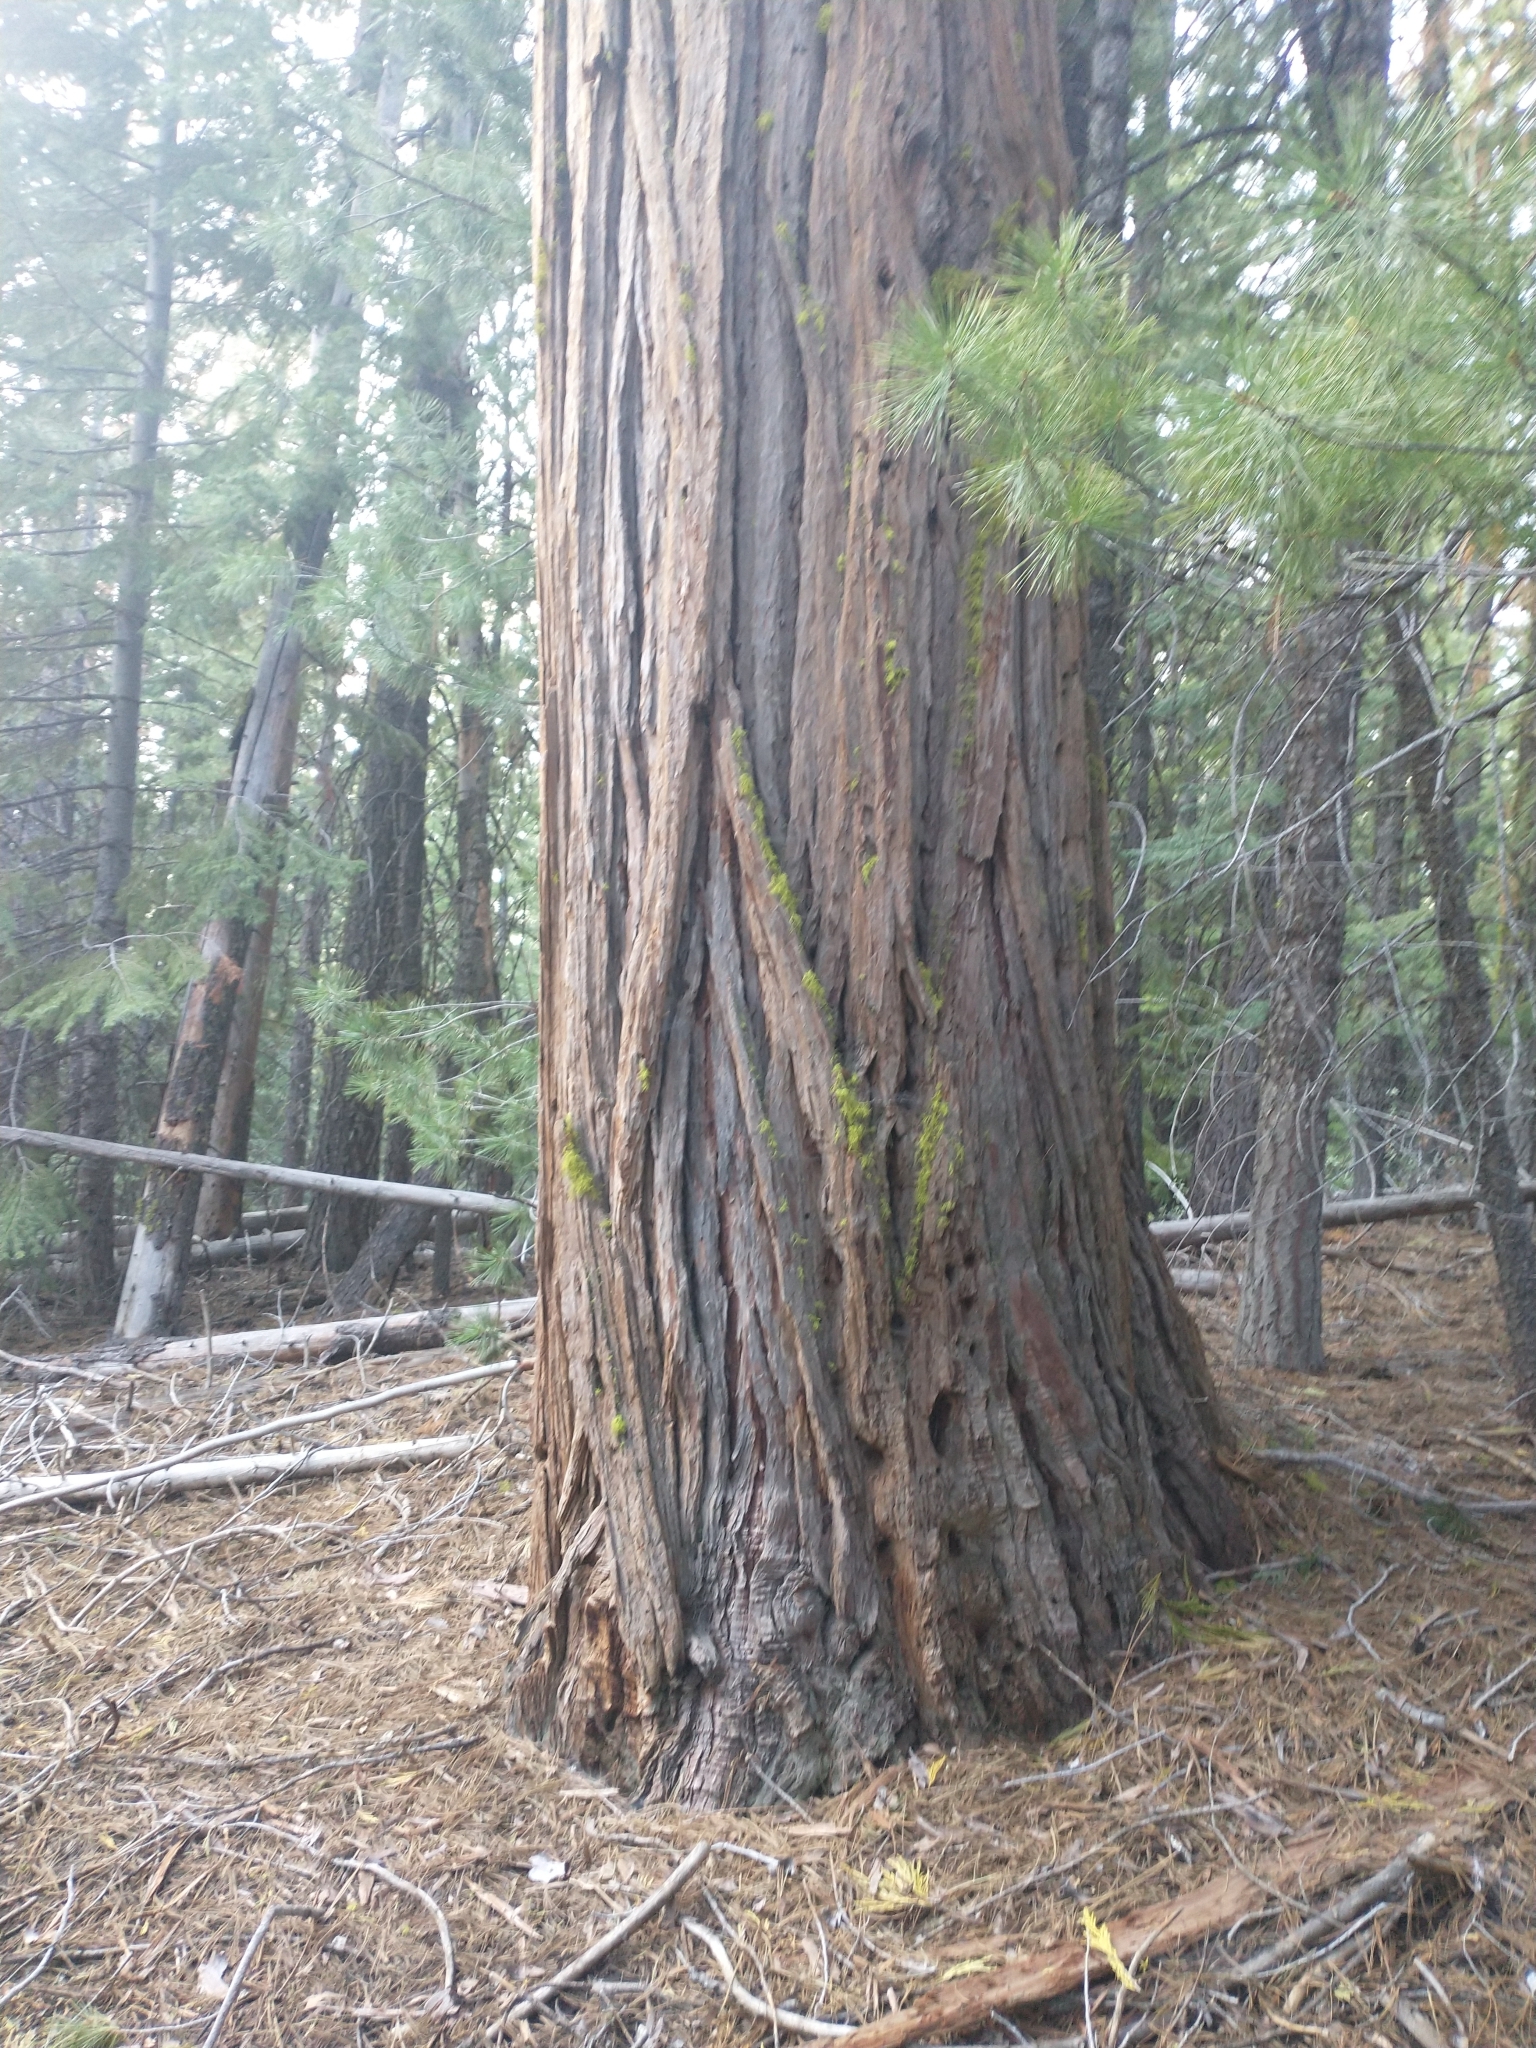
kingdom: Plantae
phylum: Tracheophyta
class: Pinopsida
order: Pinales
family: Cupressaceae
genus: Calocedrus
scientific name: Calocedrus decurrens
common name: Californian incense-cedar
